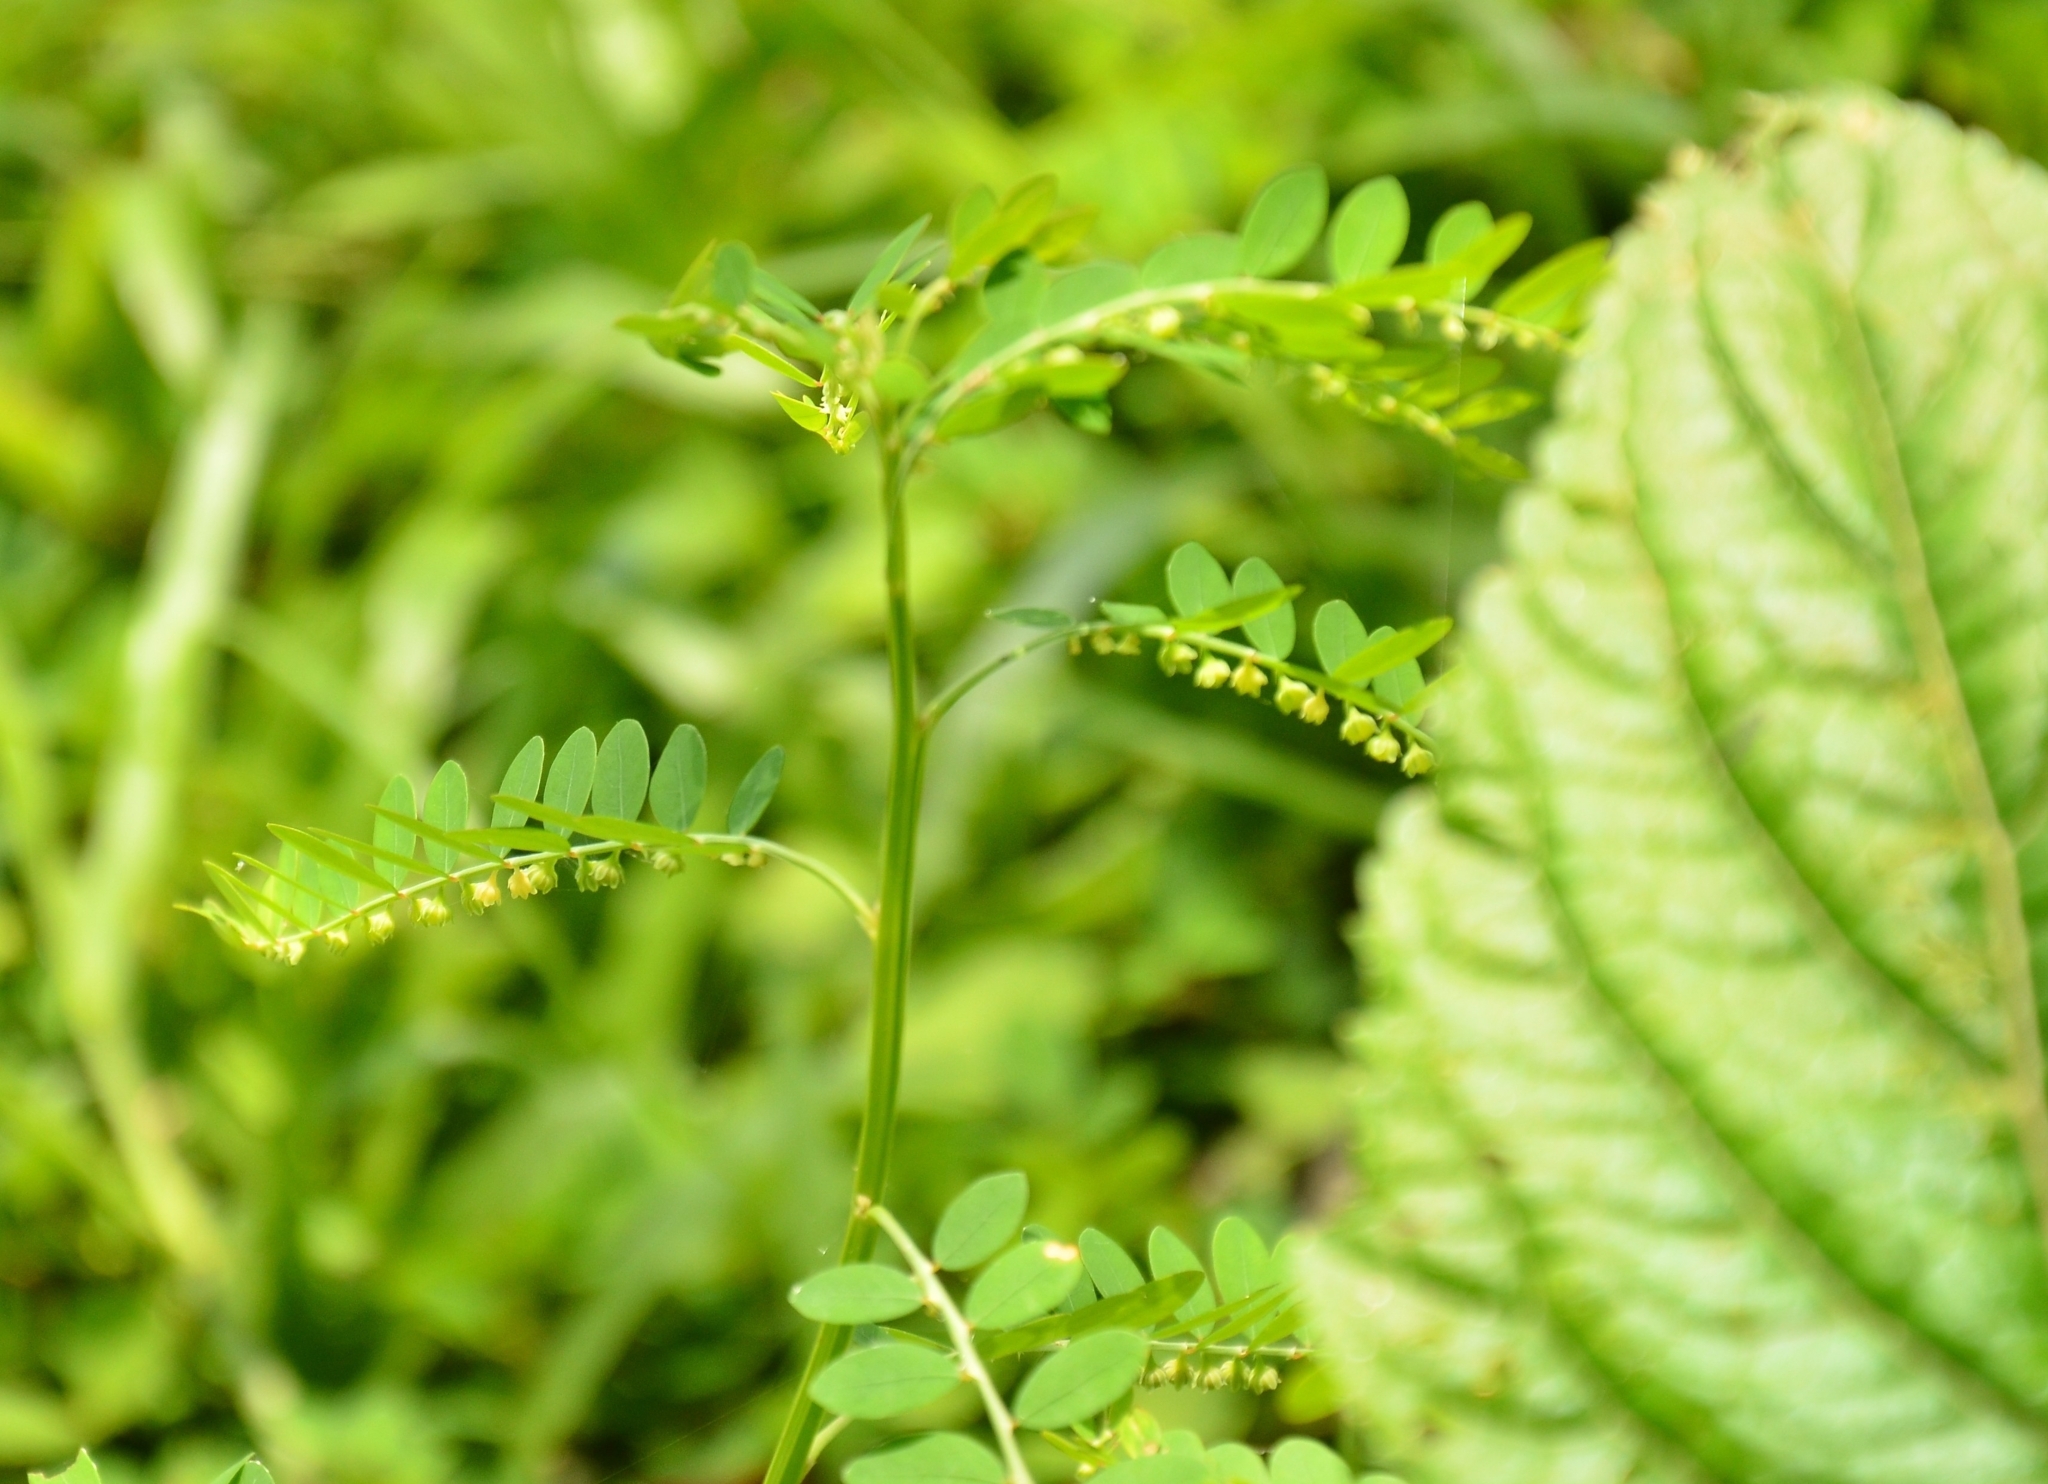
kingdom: Plantae
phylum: Tracheophyta
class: Magnoliopsida
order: Malpighiales
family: Phyllanthaceae
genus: Phyllanthus
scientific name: Phyllanthus amarus
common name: Carry me seed
